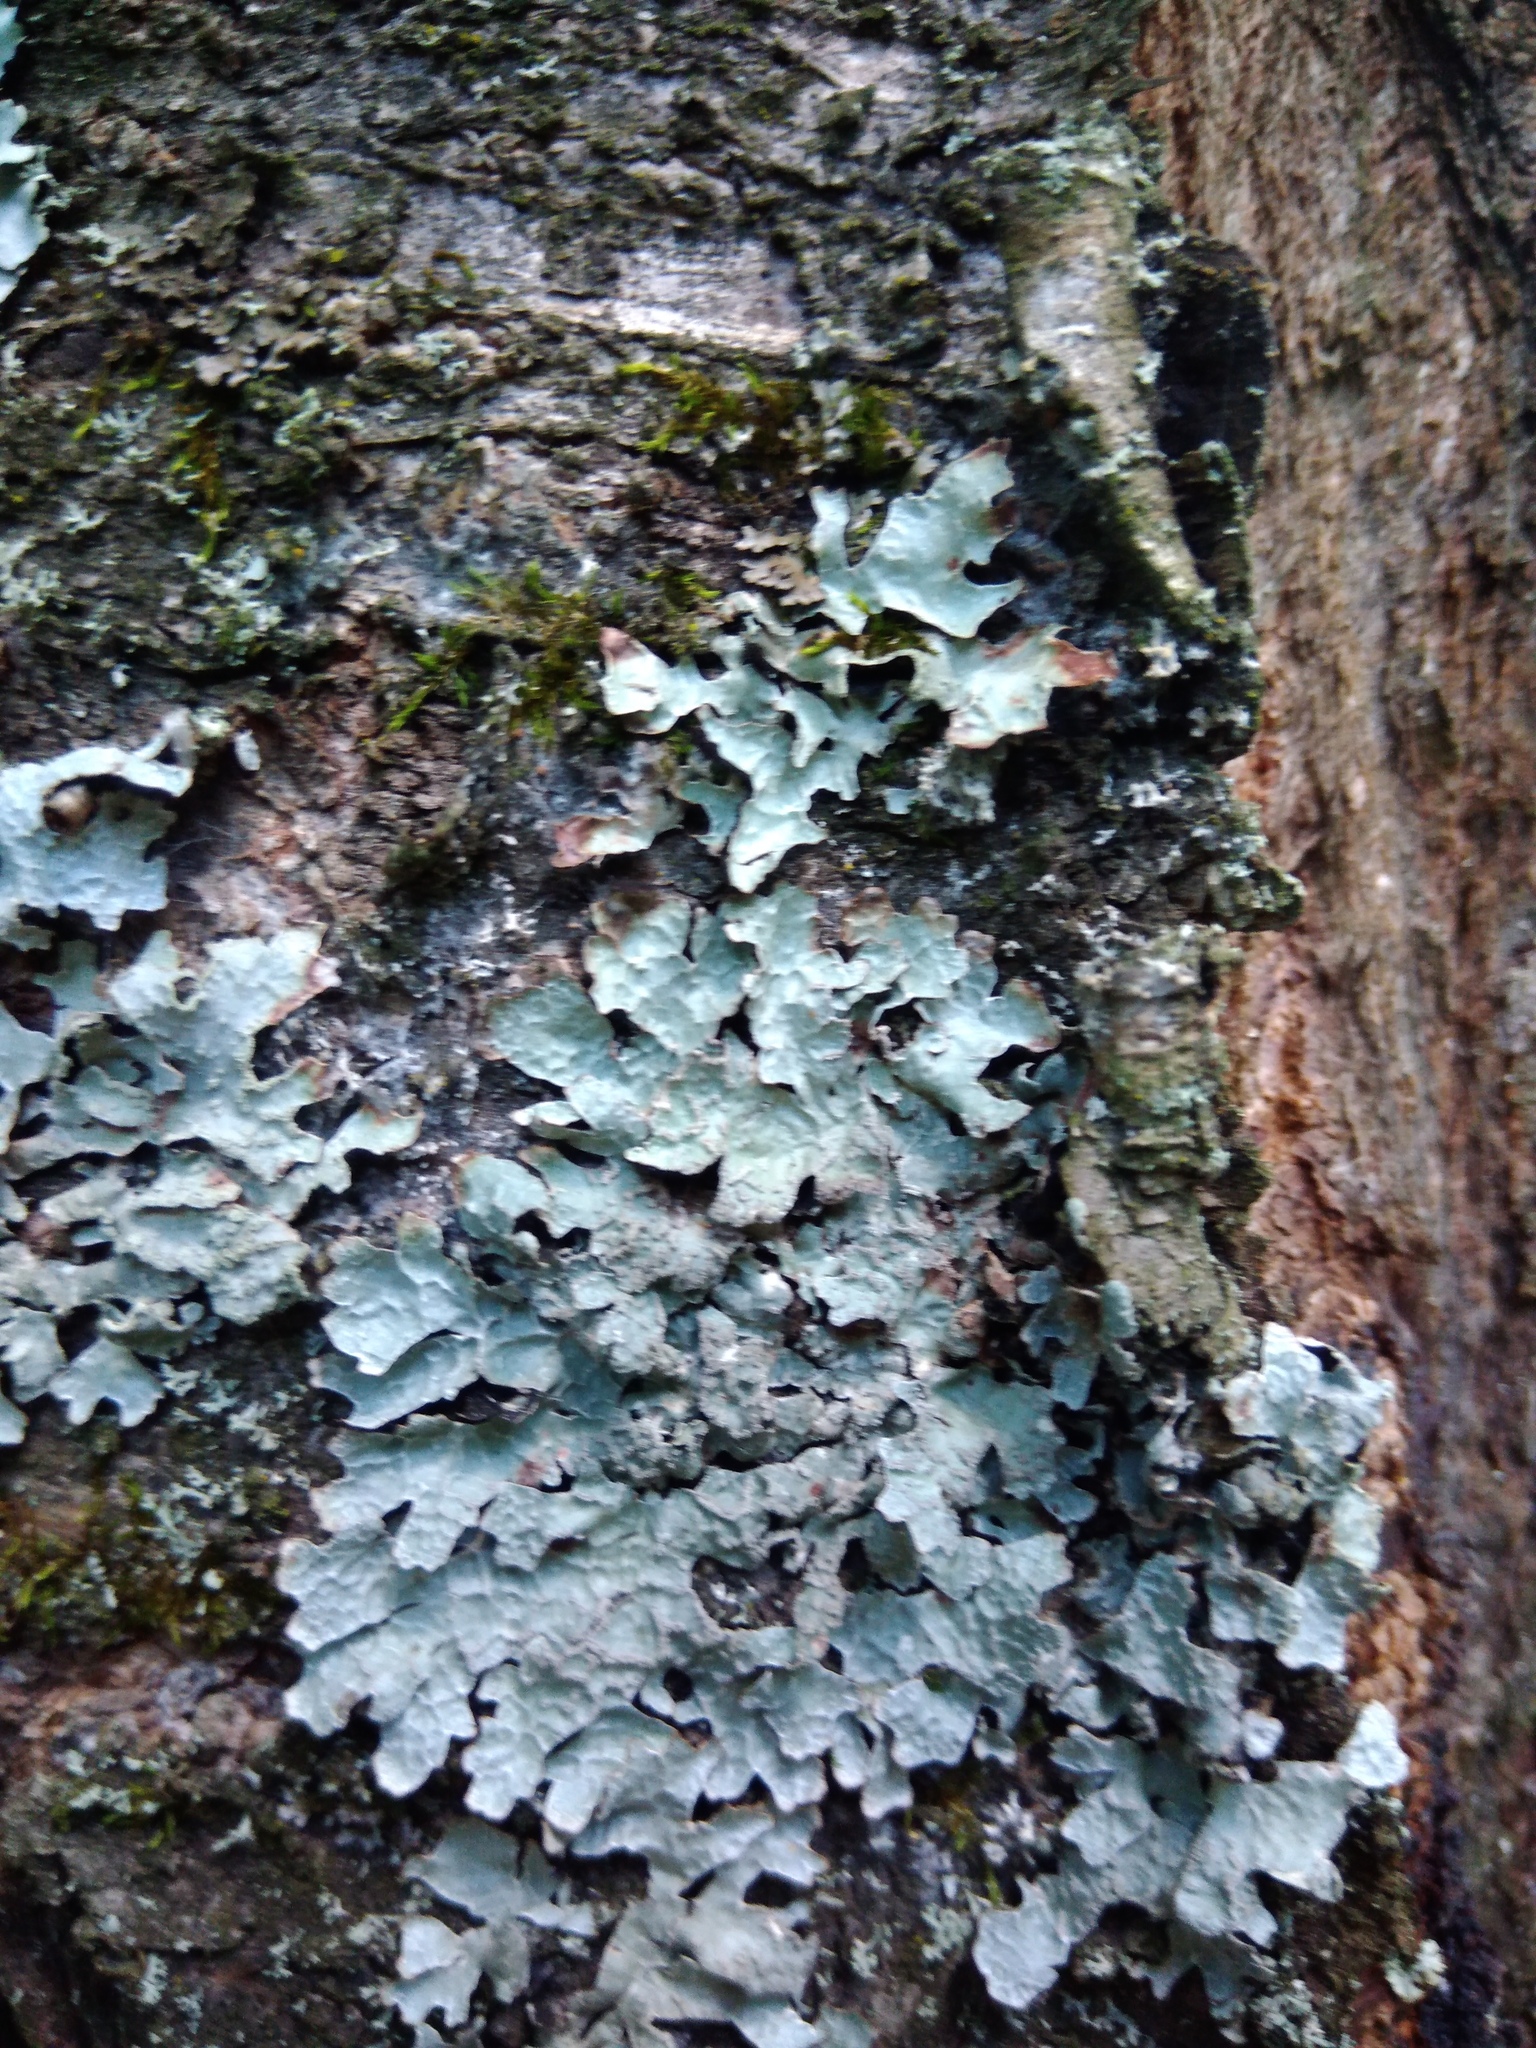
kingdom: Fungi
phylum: Ascomycota
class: Lecanoromycetes
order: Lecanorales
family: Parmeliaceae
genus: Parmelia
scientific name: Parmelia sulcata
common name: Netted shield lichen
